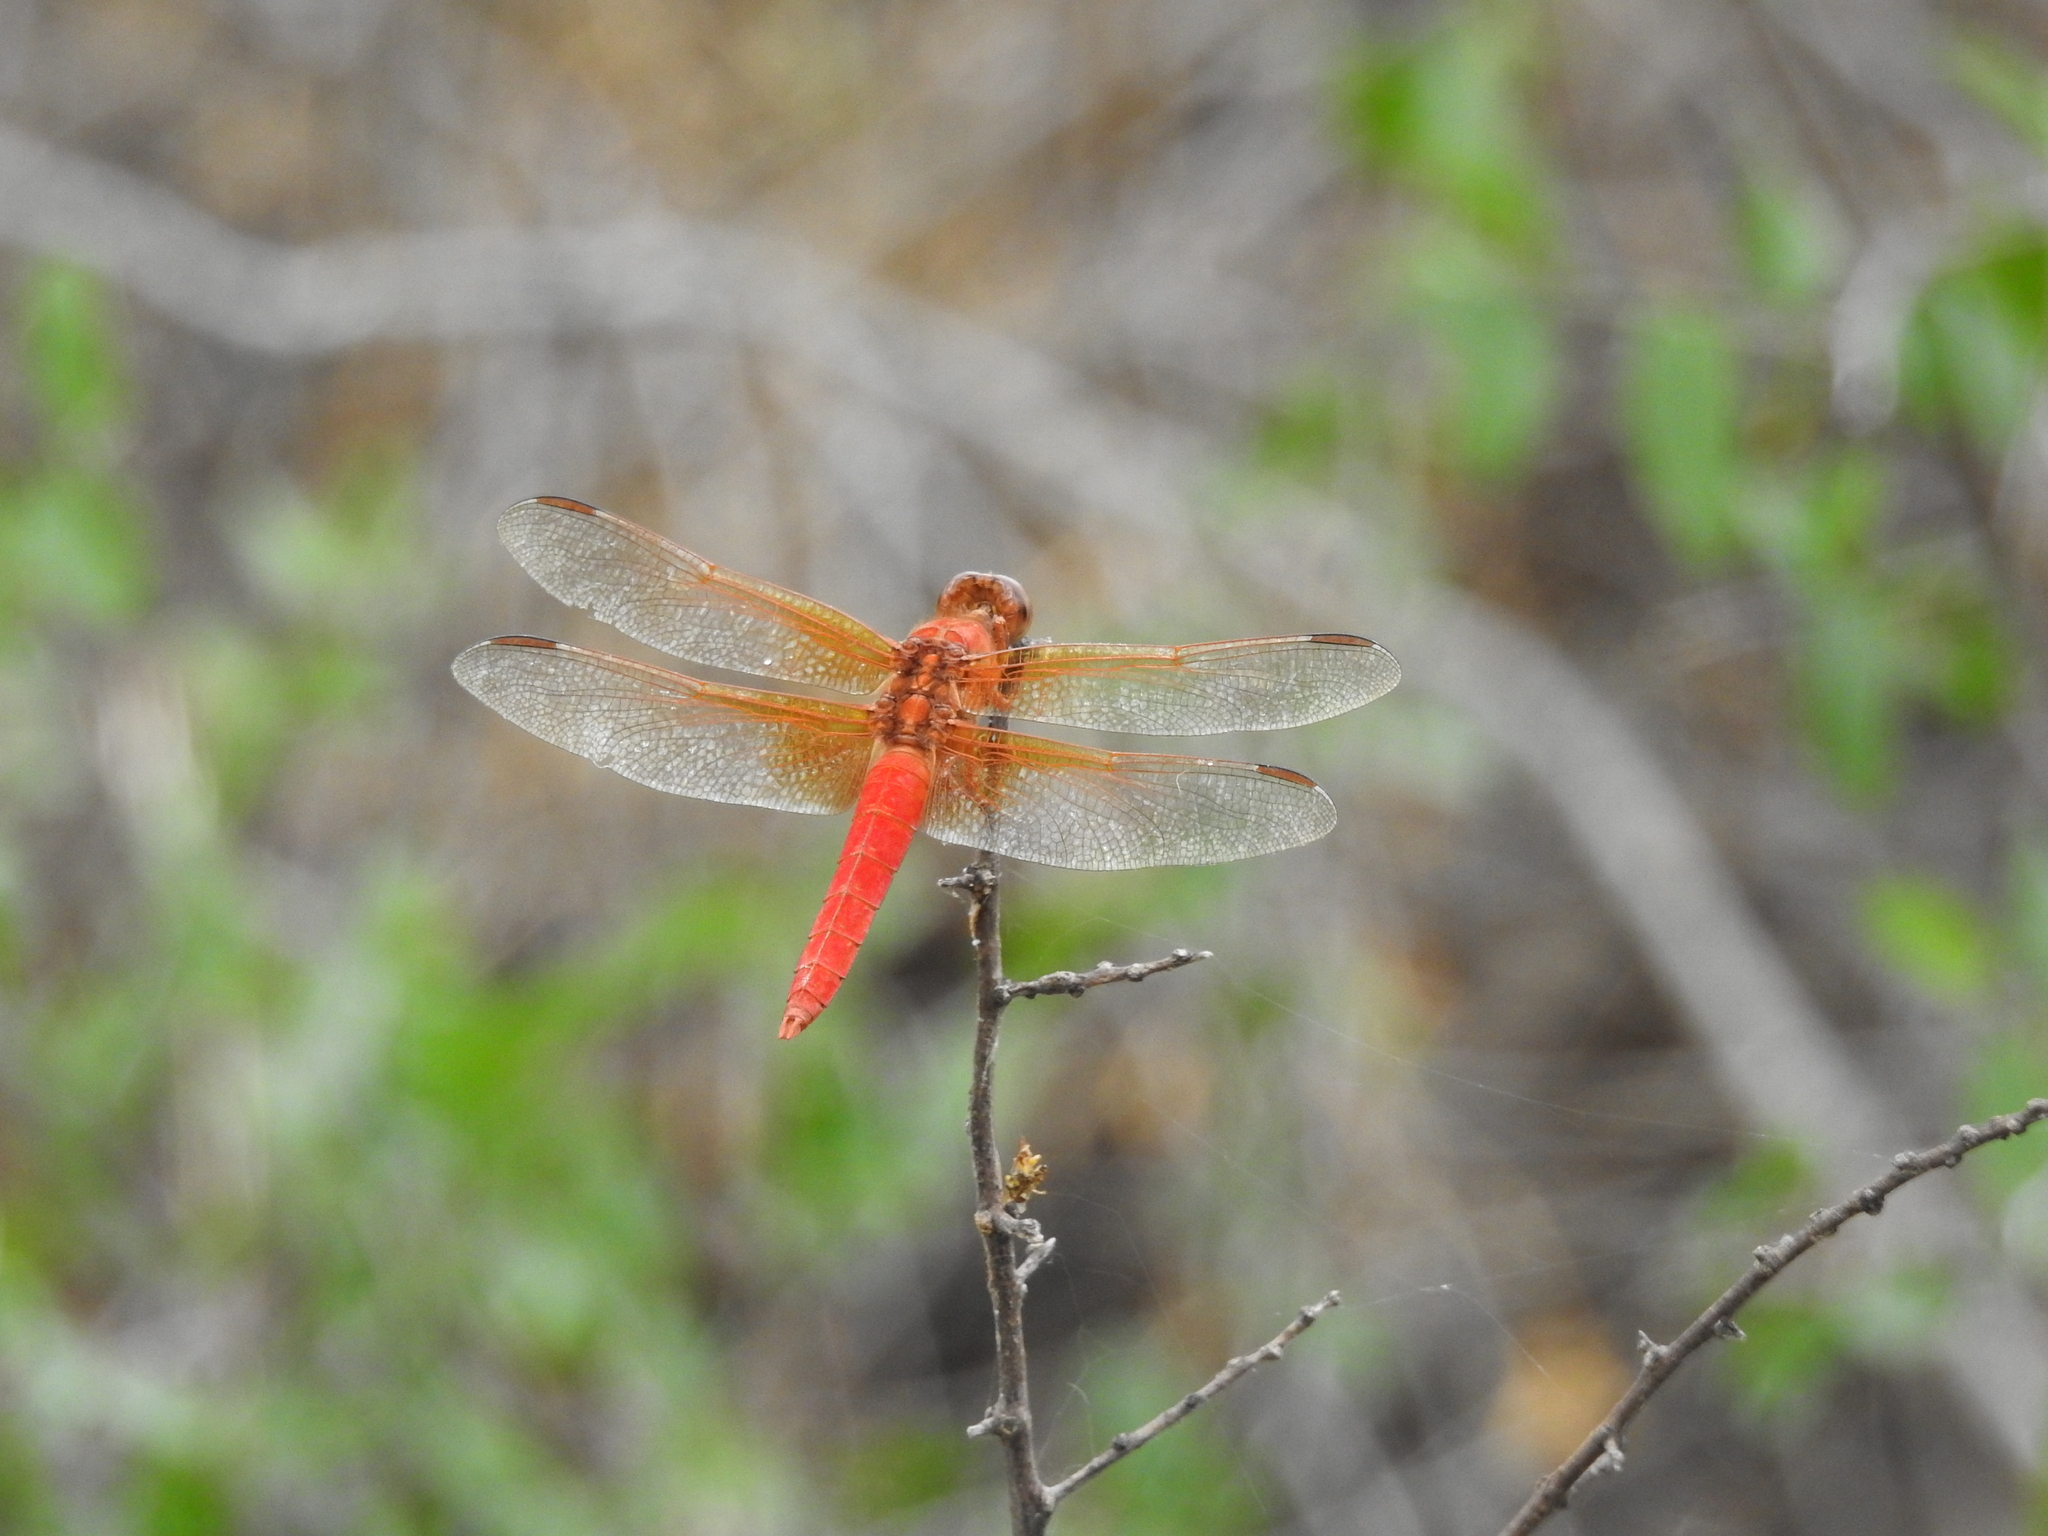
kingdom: Animalia
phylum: Arthropoda
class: Insecta
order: Odonata
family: Libellulidae
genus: Libellula
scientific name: Libellula croceipennis
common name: Neon skimmer
